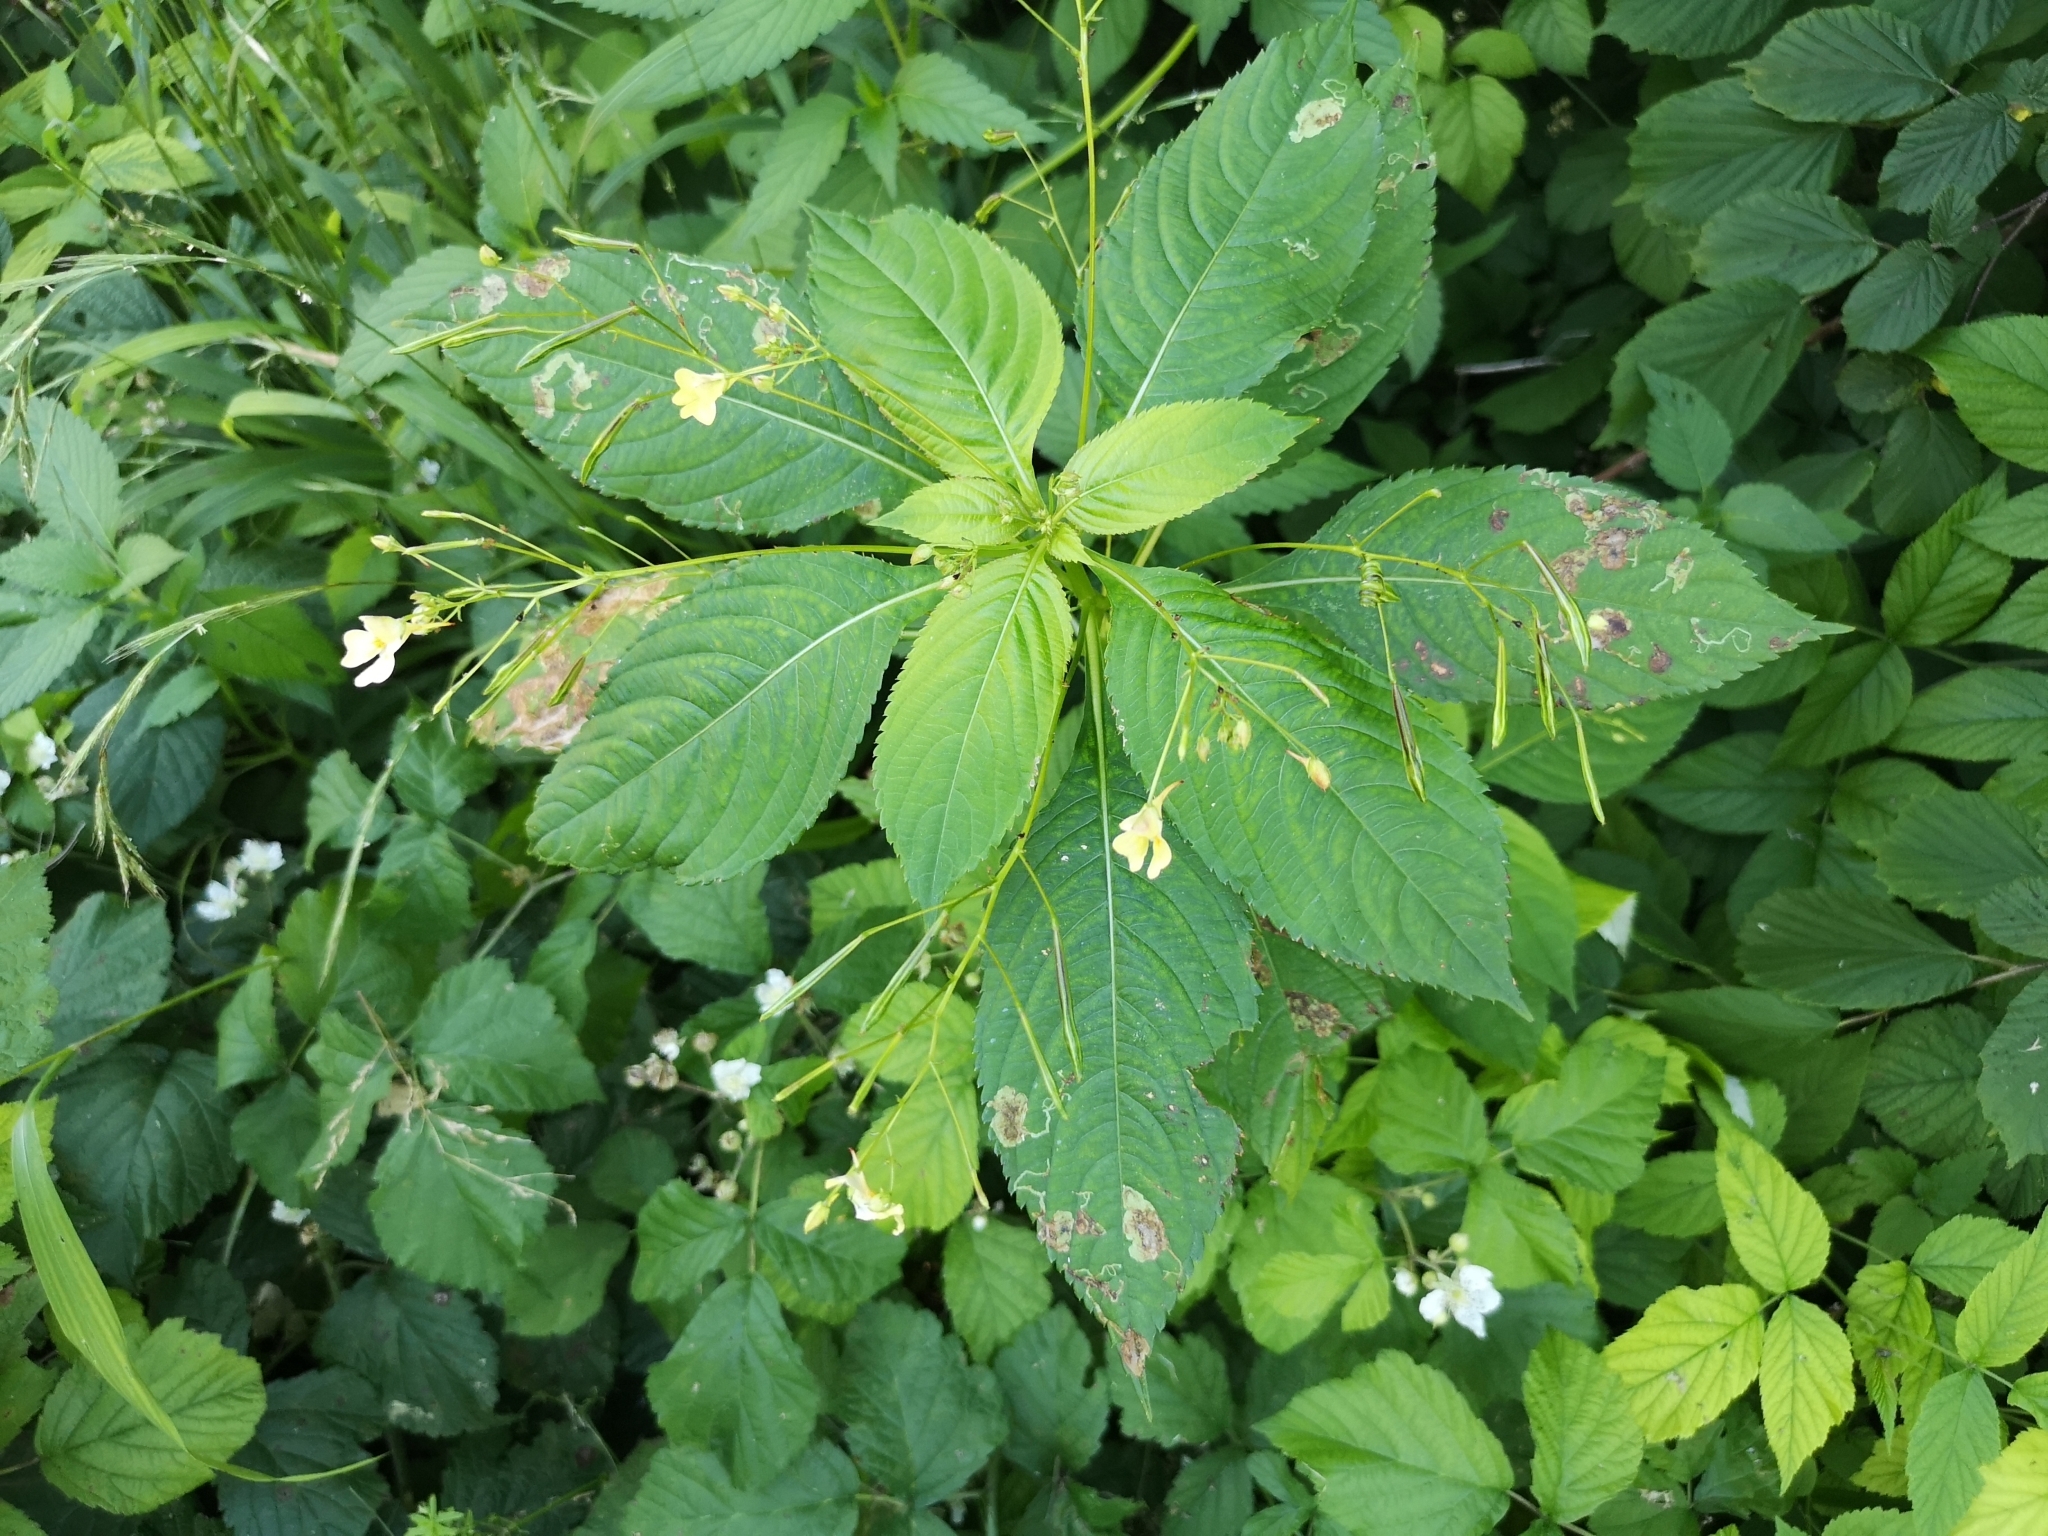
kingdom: Plantae
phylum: Tracheophyta
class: Magnoliopsida
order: Ericales
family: Balsaminaceae
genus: Impatiens
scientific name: Impatiens parviflora
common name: Small balsam
